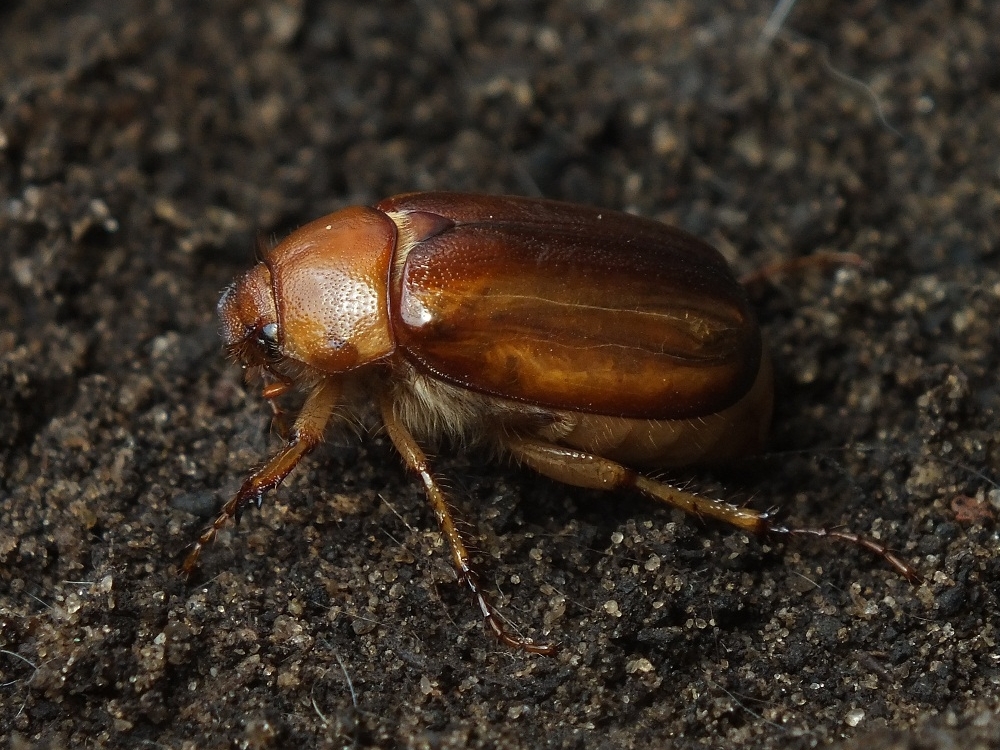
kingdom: Animalia
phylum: Arthropoda
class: Insecta
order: Coleoptera
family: Scarabaeidae
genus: Rhizotrogus
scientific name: Rhizotrogus aestivus
